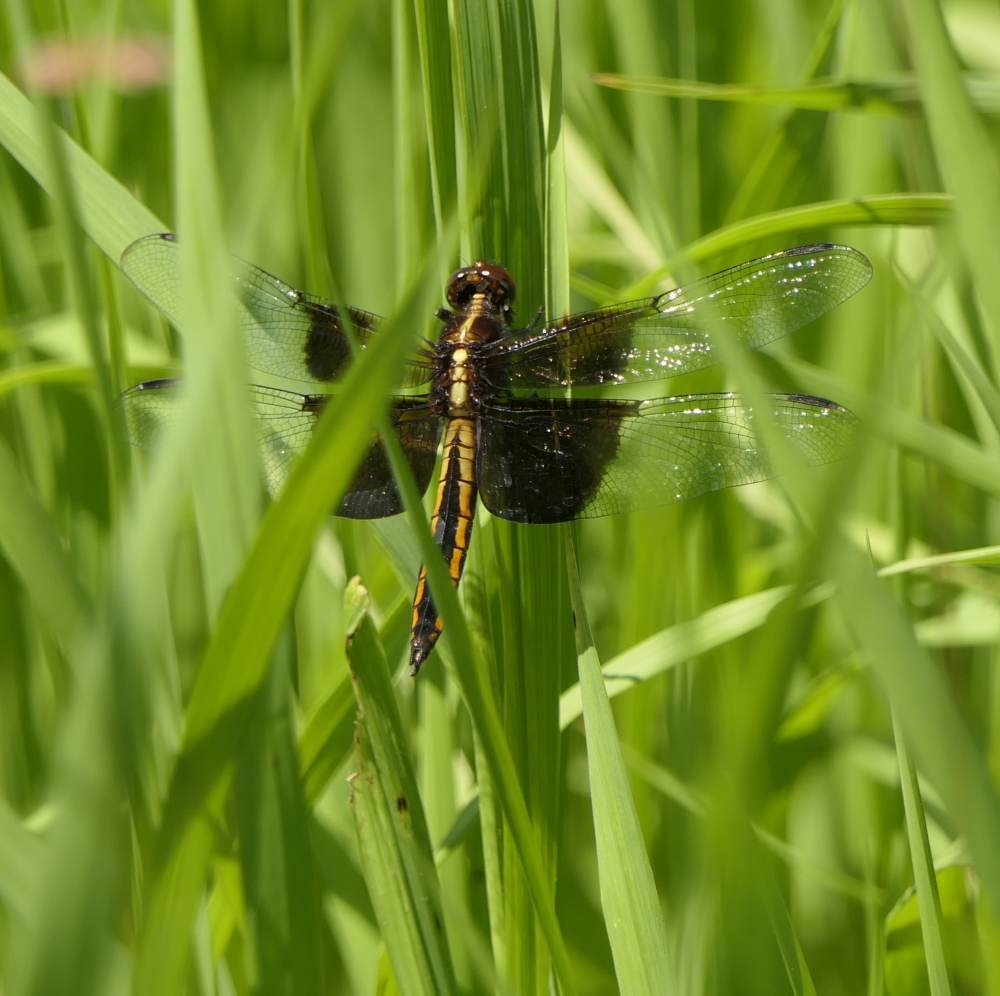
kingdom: Animalia
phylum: Arthropoda
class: Insecta
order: Odonata
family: Libellulidae
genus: Libellula
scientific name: Libellula luctuosa
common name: Widow skimmer
